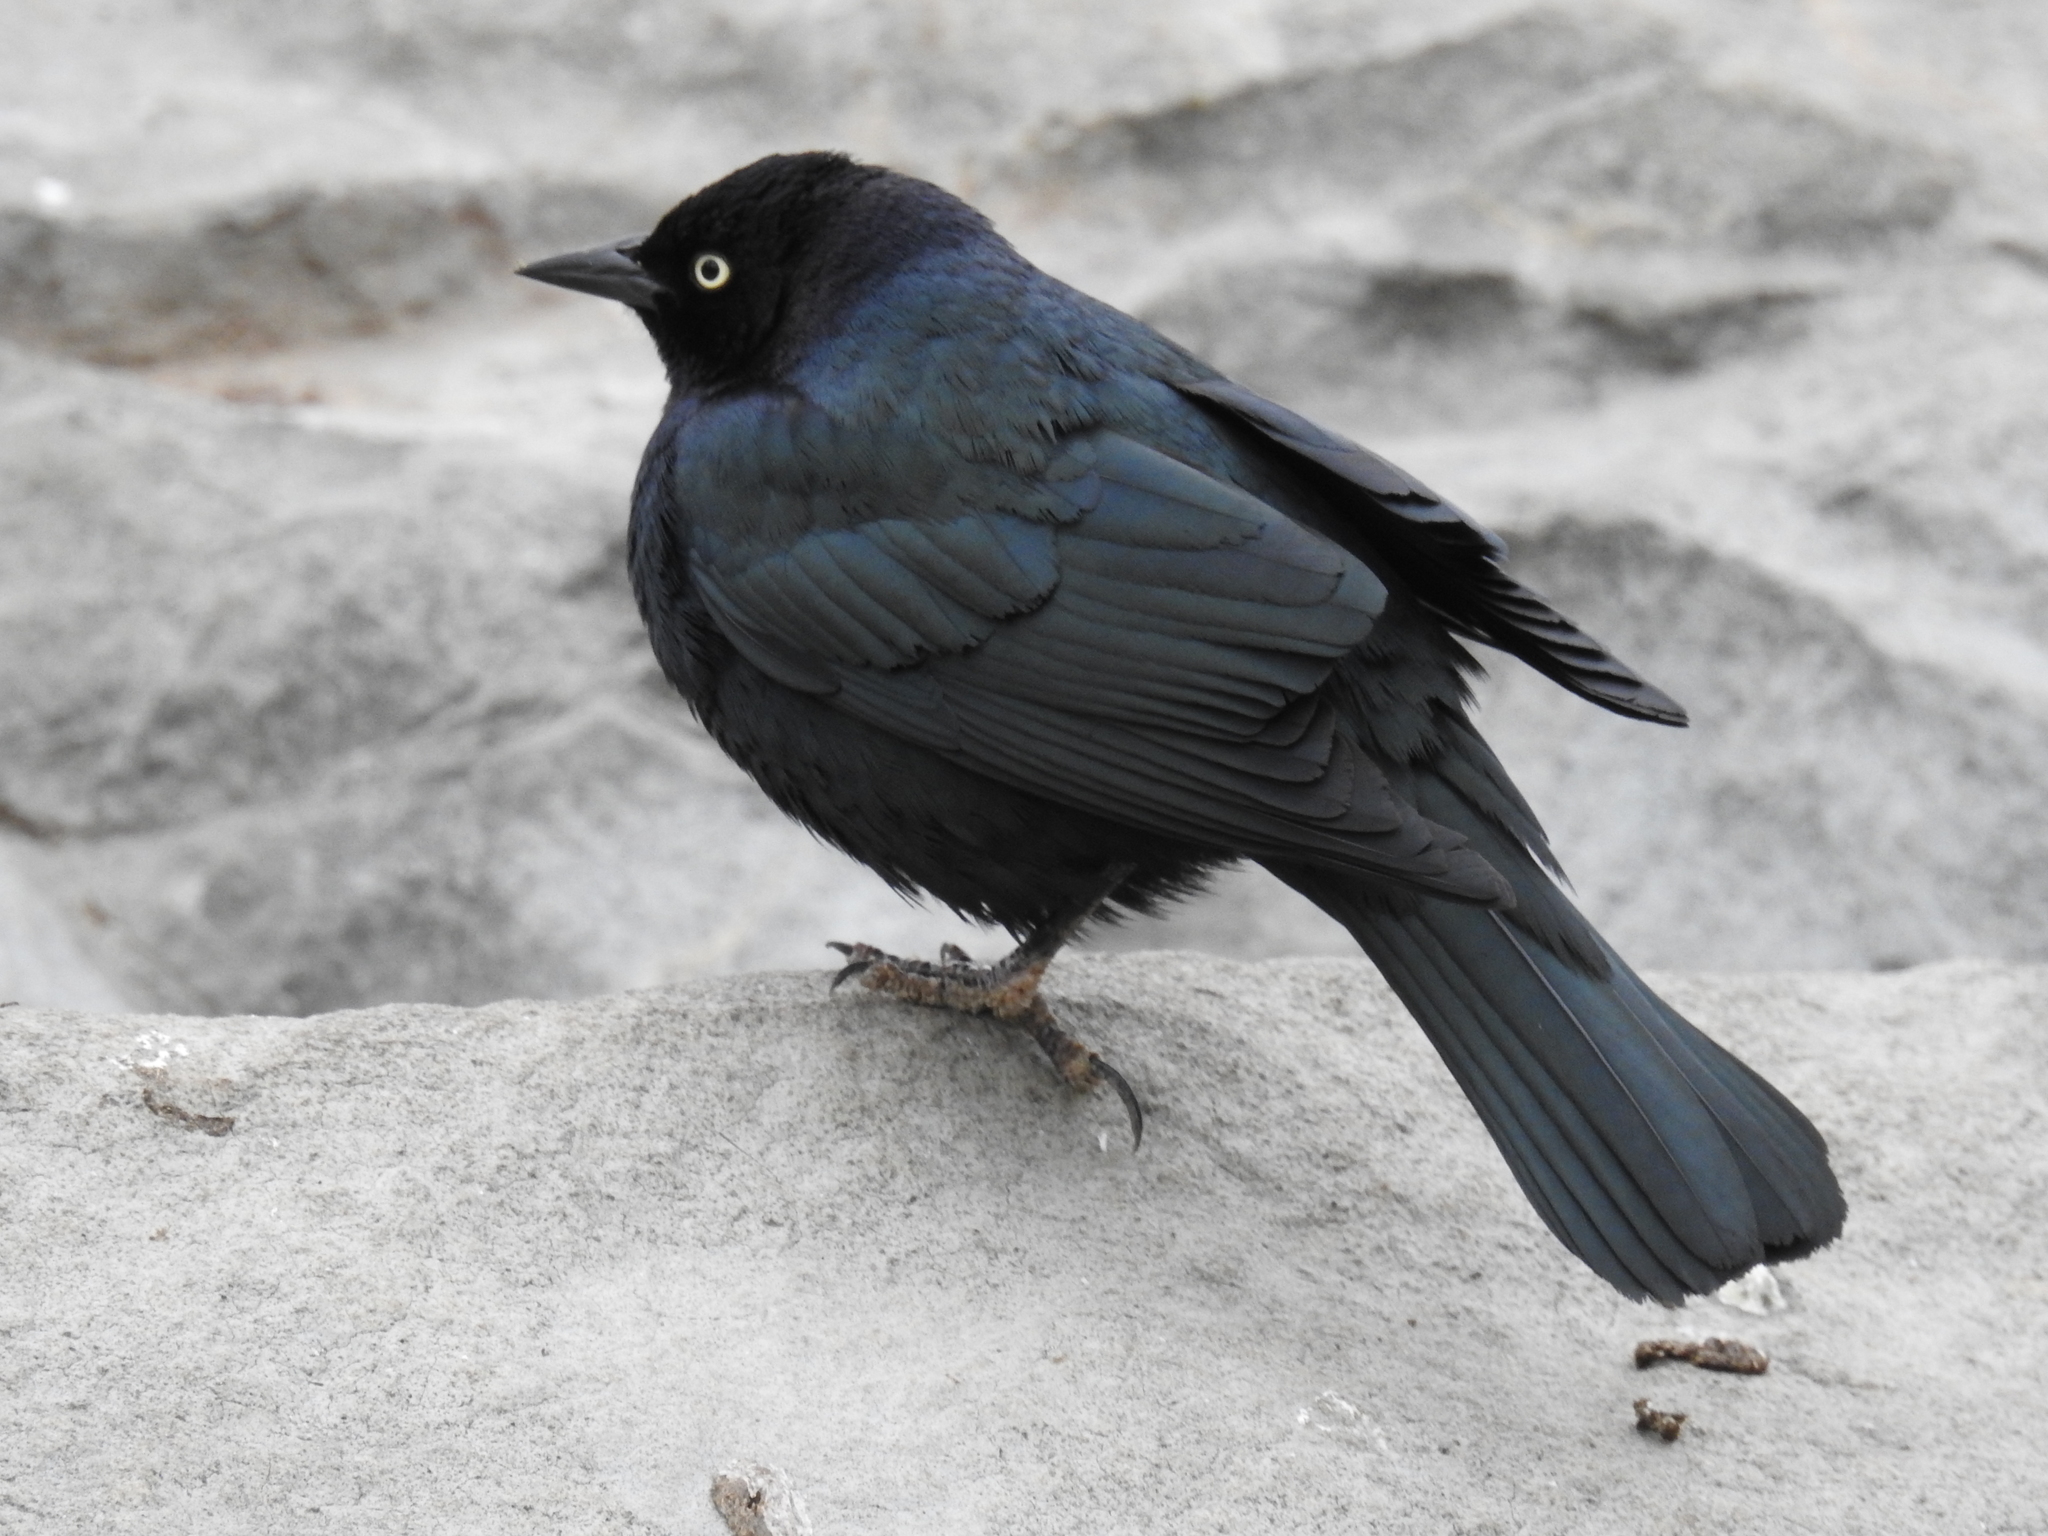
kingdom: Animalia
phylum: Chordata
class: Aves
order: Passeriformes
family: Icteridae
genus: Euphagus
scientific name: Euphagus cyanocephalus
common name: Brewer's blackbird
